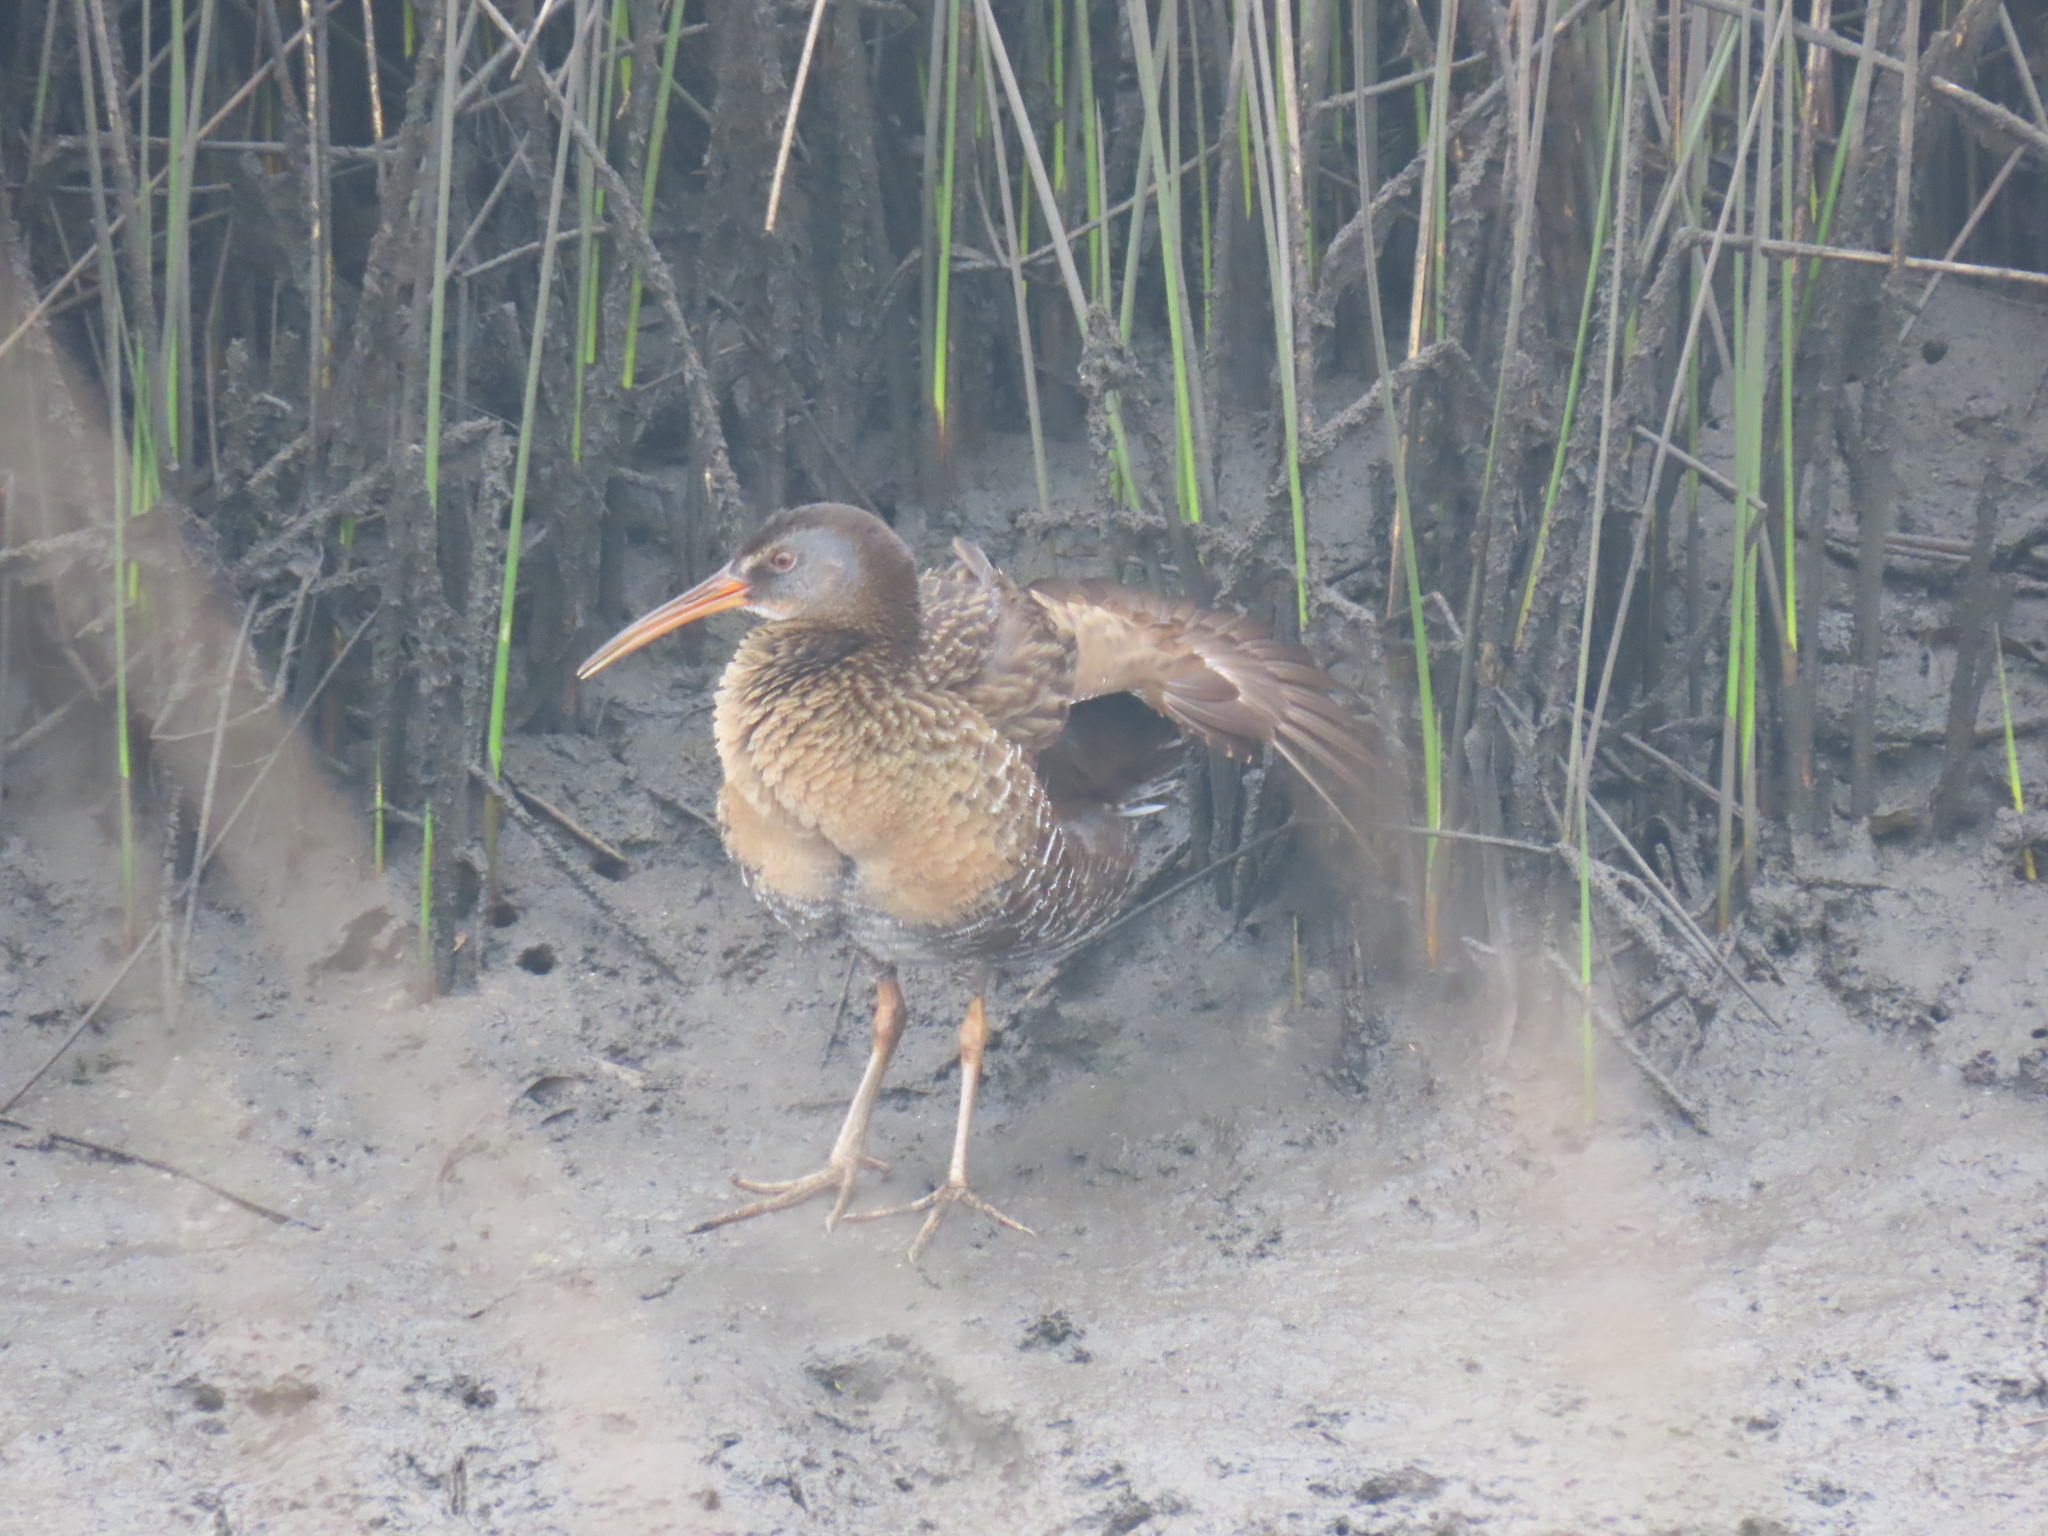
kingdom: Animalia
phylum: Chordata
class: Aves
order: Gruiformes
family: Rallidae
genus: Rallus
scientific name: Rallus crepitans
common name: Clapper rail
